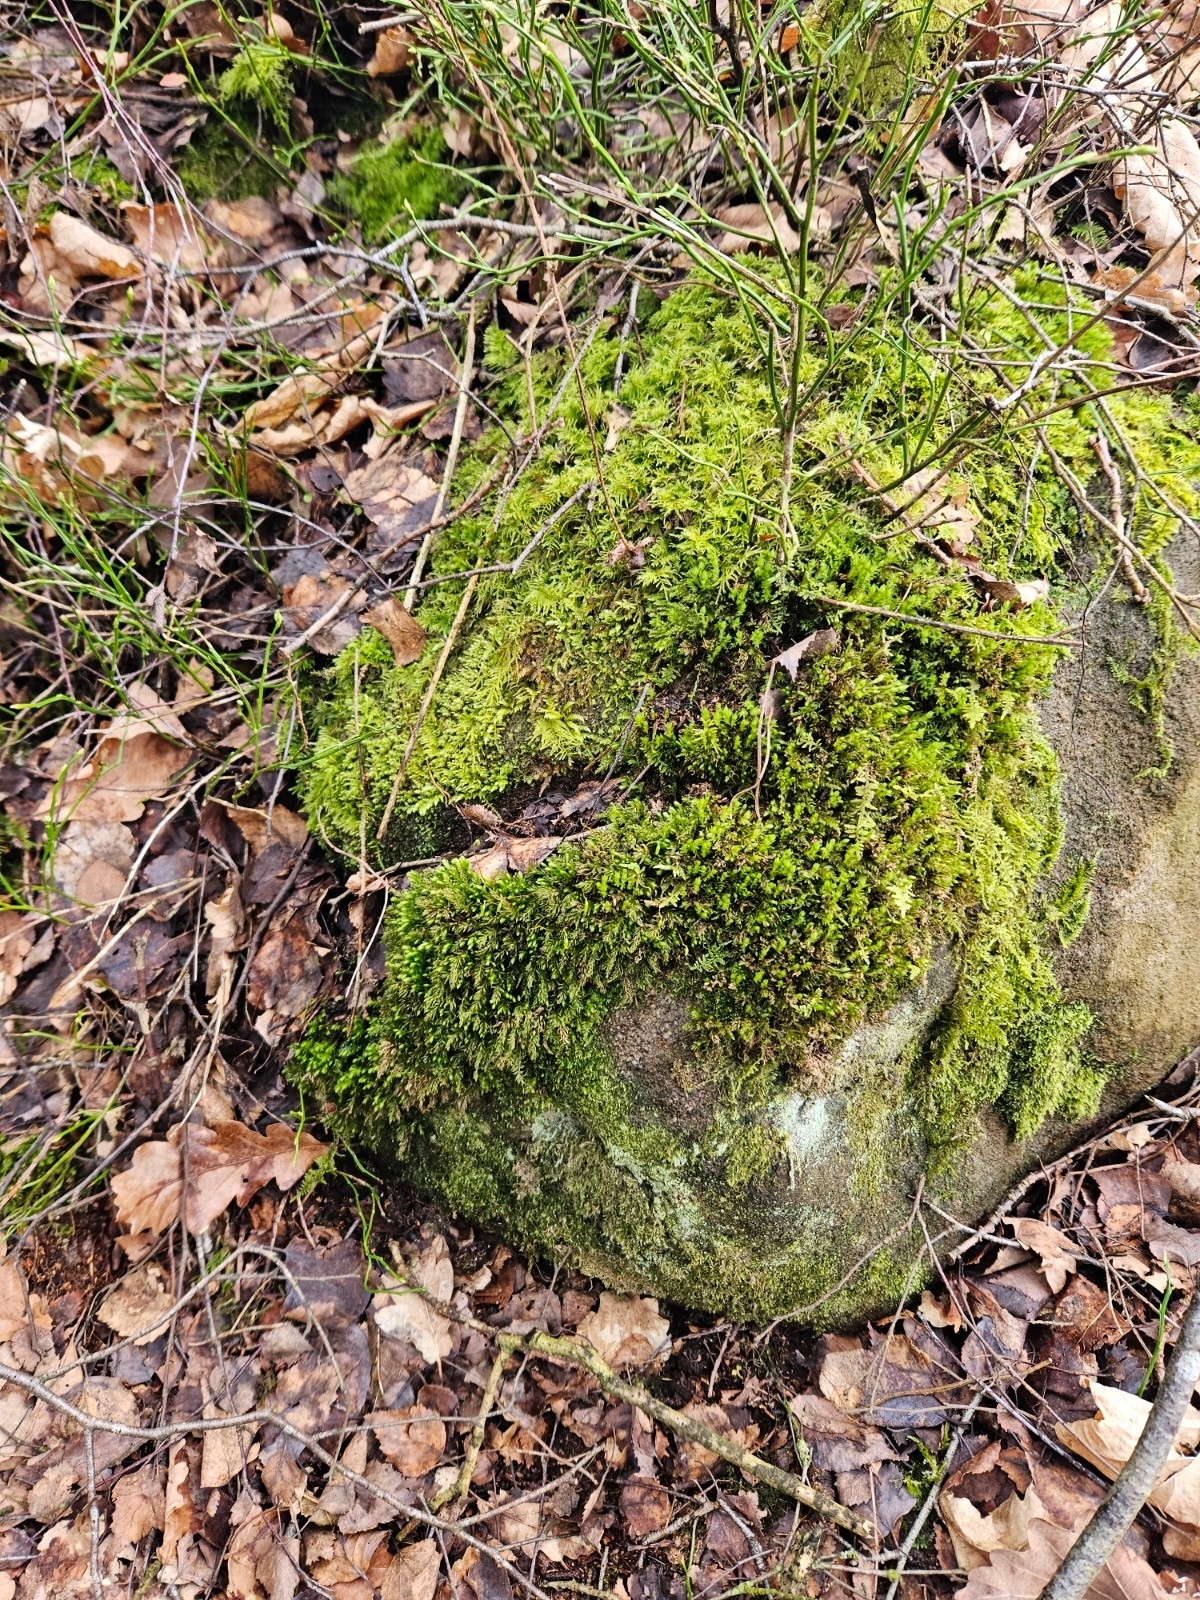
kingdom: Plantae
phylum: Bryophyta
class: Bryopsida
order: Bryales
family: Mniaceae
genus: Mnium
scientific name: Mnium hornum
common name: Swan's-neck leafy moss
